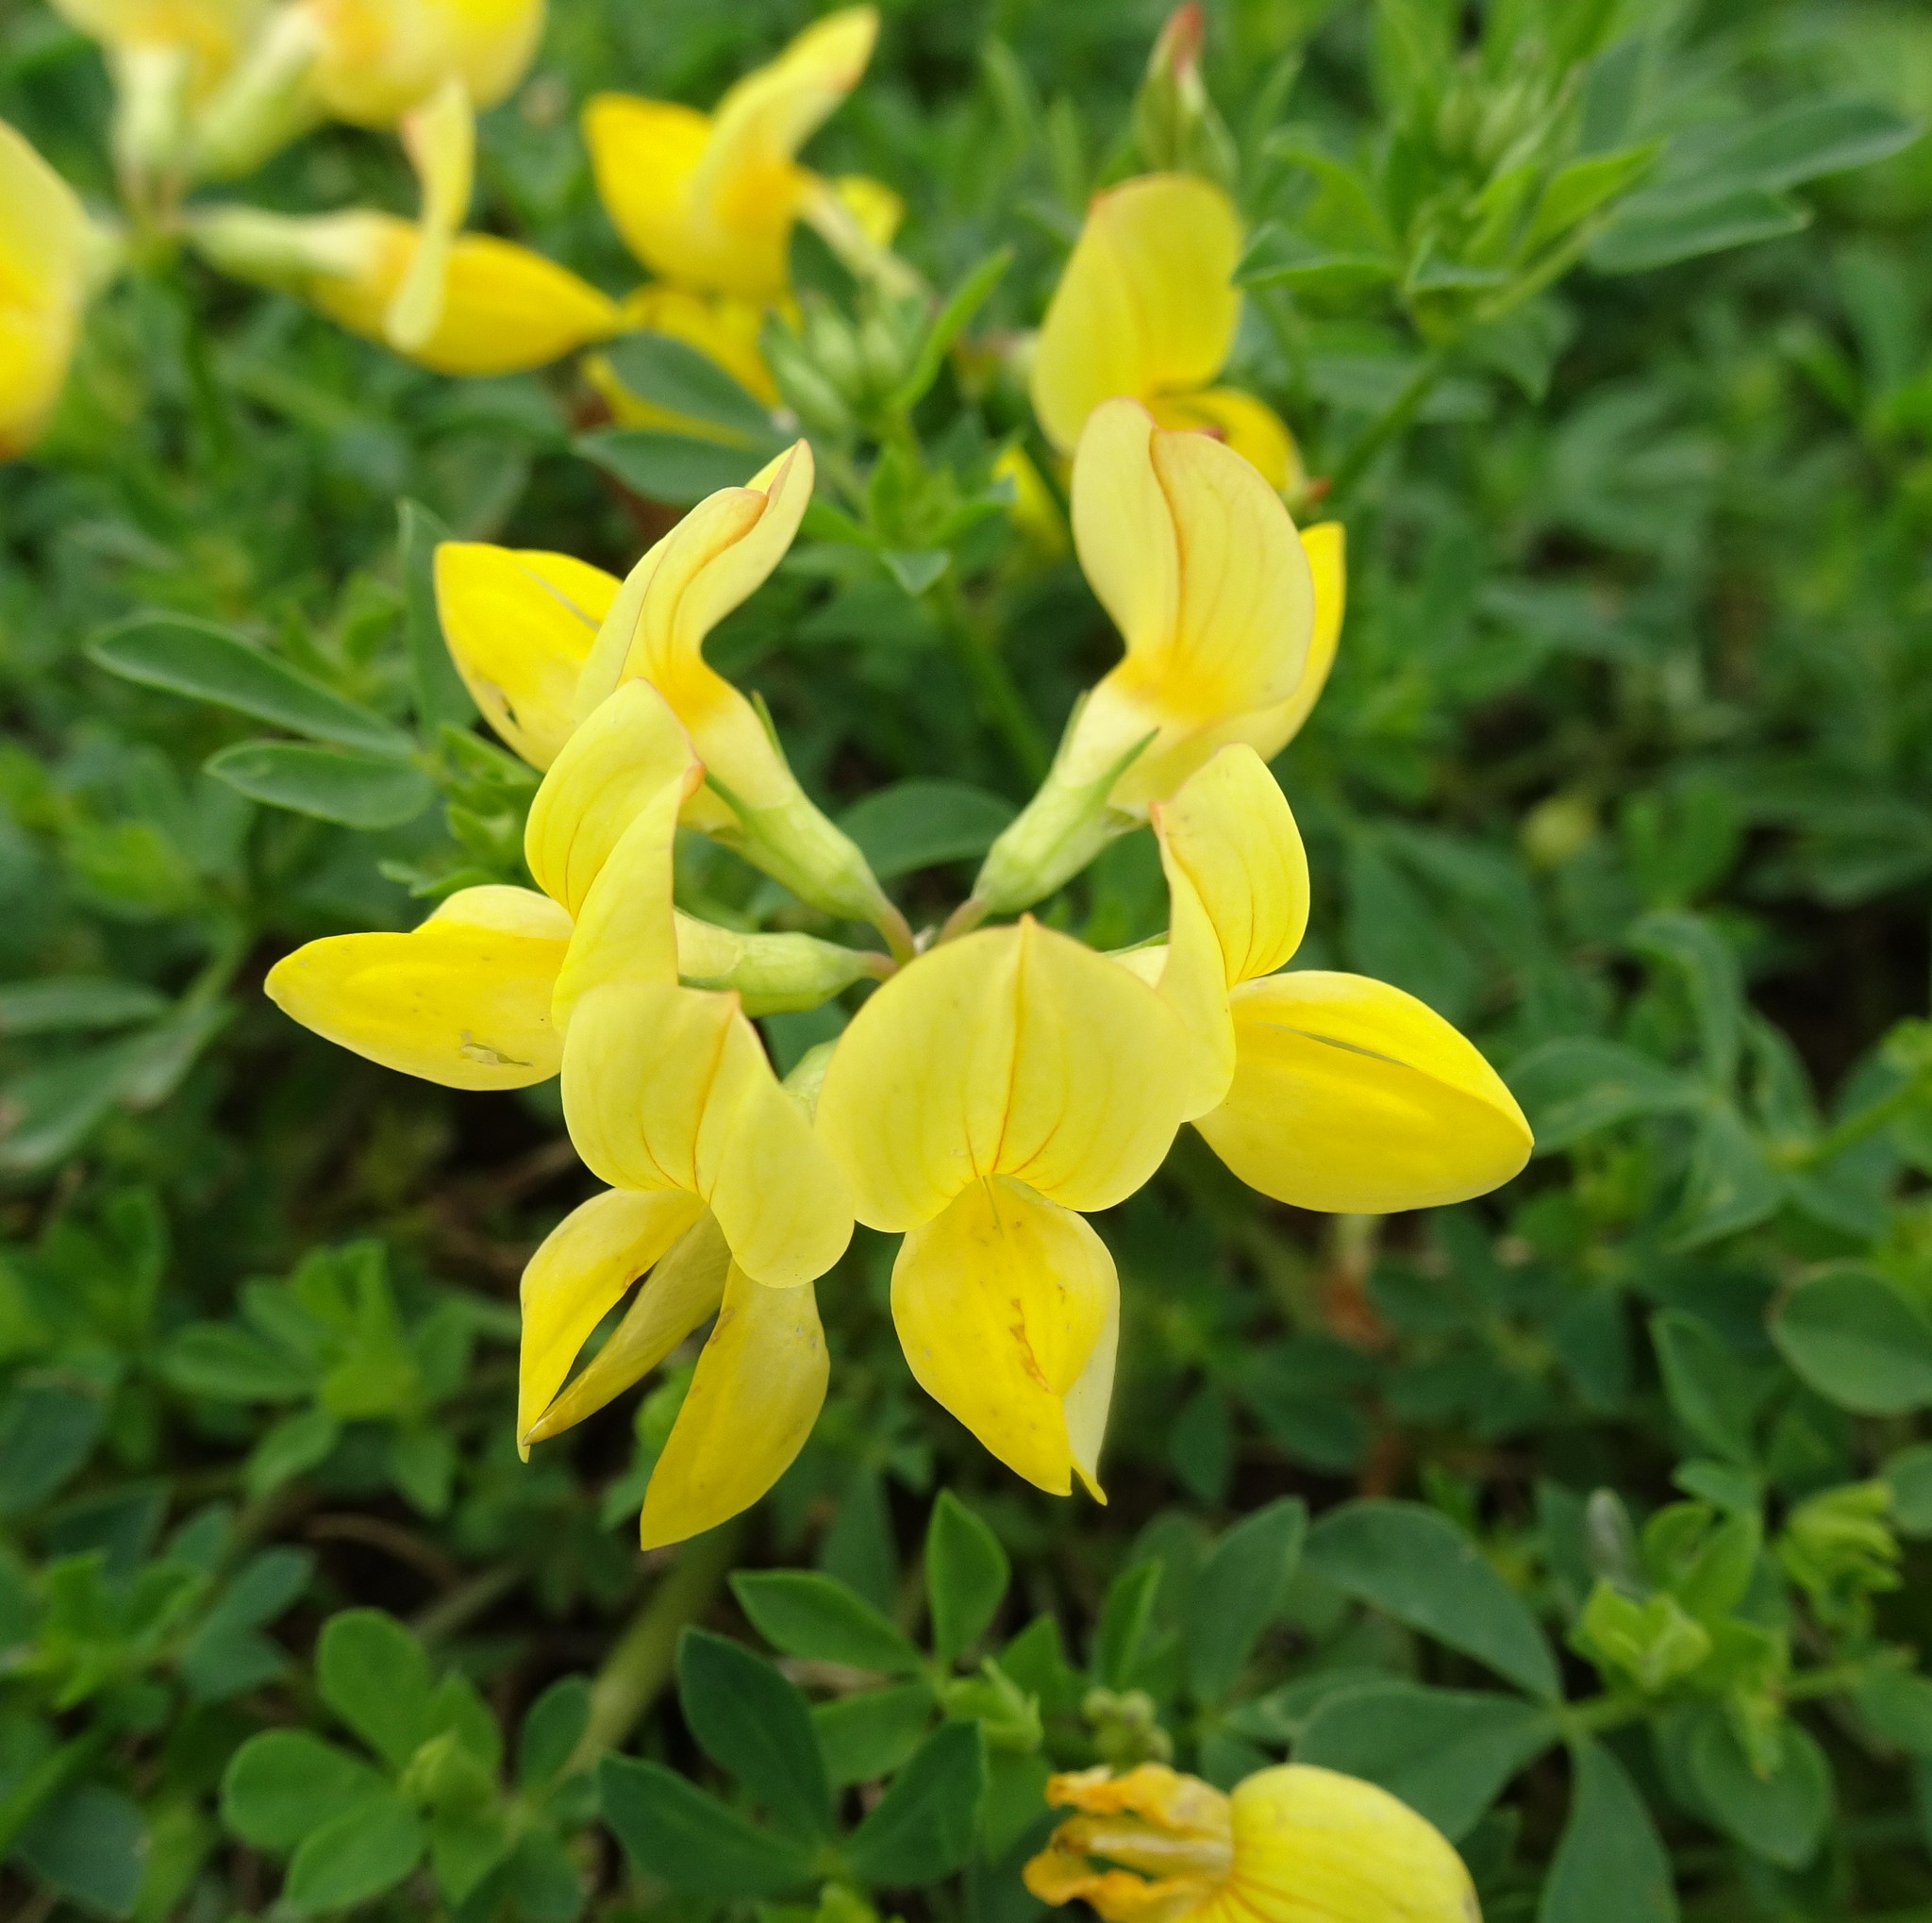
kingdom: Plantae
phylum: Tracheophyta
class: Magnoliopsida
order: Fabales
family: Fabaceae
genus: Lotus
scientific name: Lotus corniculatus
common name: Common bird's-foot-trefoil
